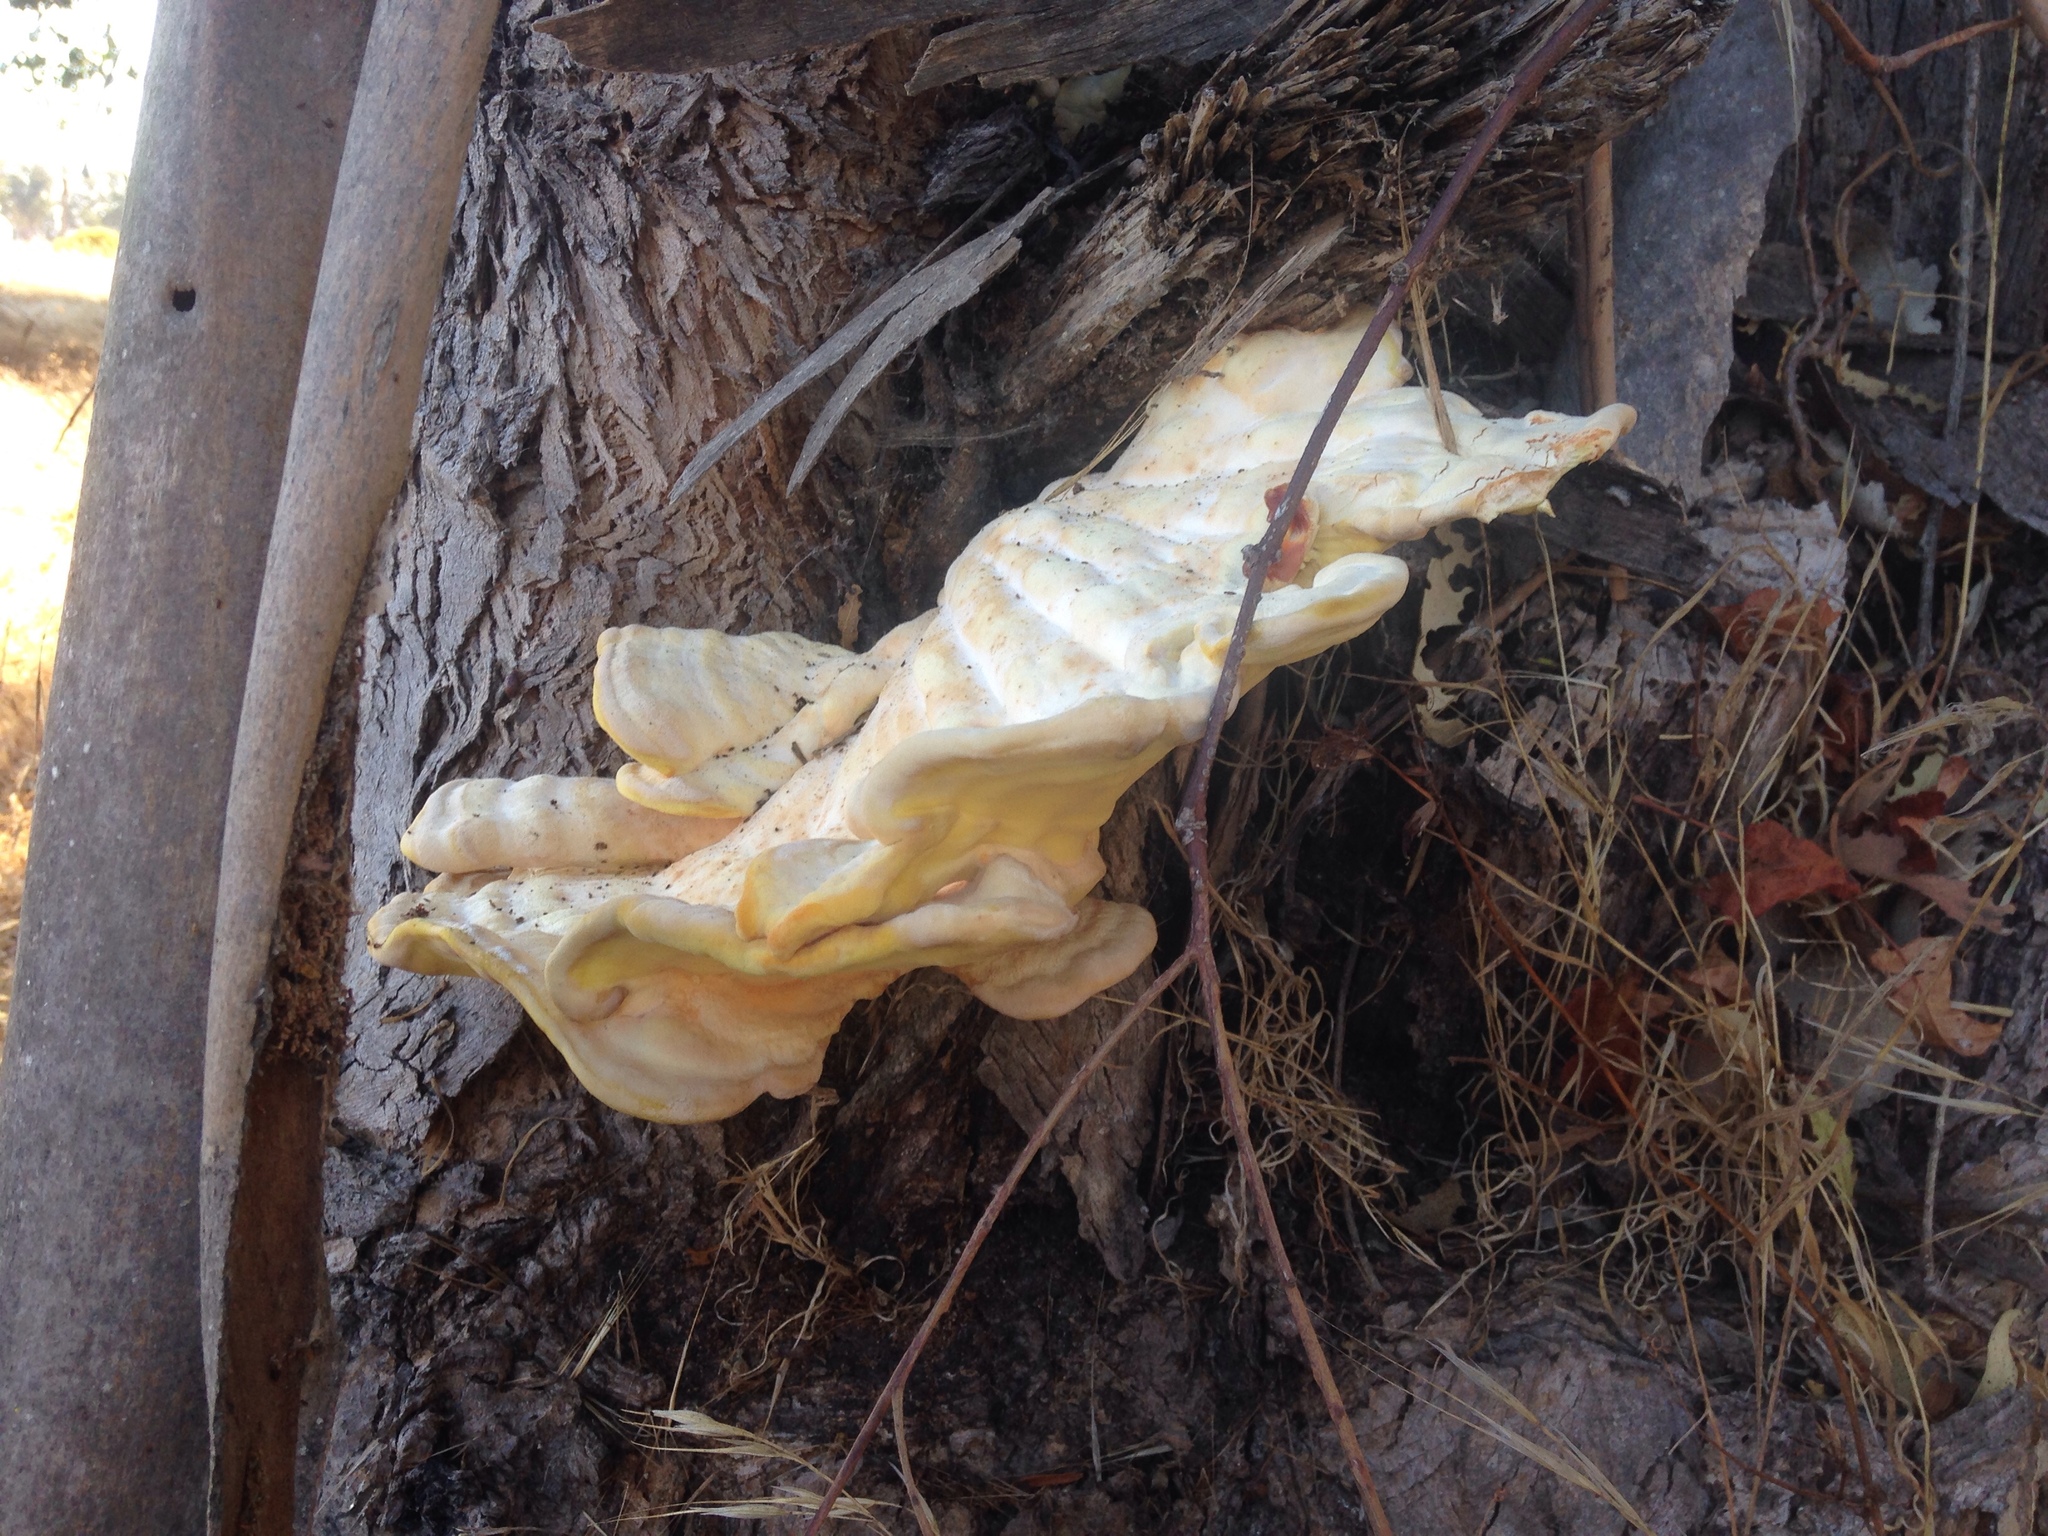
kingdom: Fungi
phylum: Basidiomycota
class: Agaricomycetes
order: Polyporales
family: Laetiporaceae
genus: Laetiporus
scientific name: Laetiporus gilbertsonii
